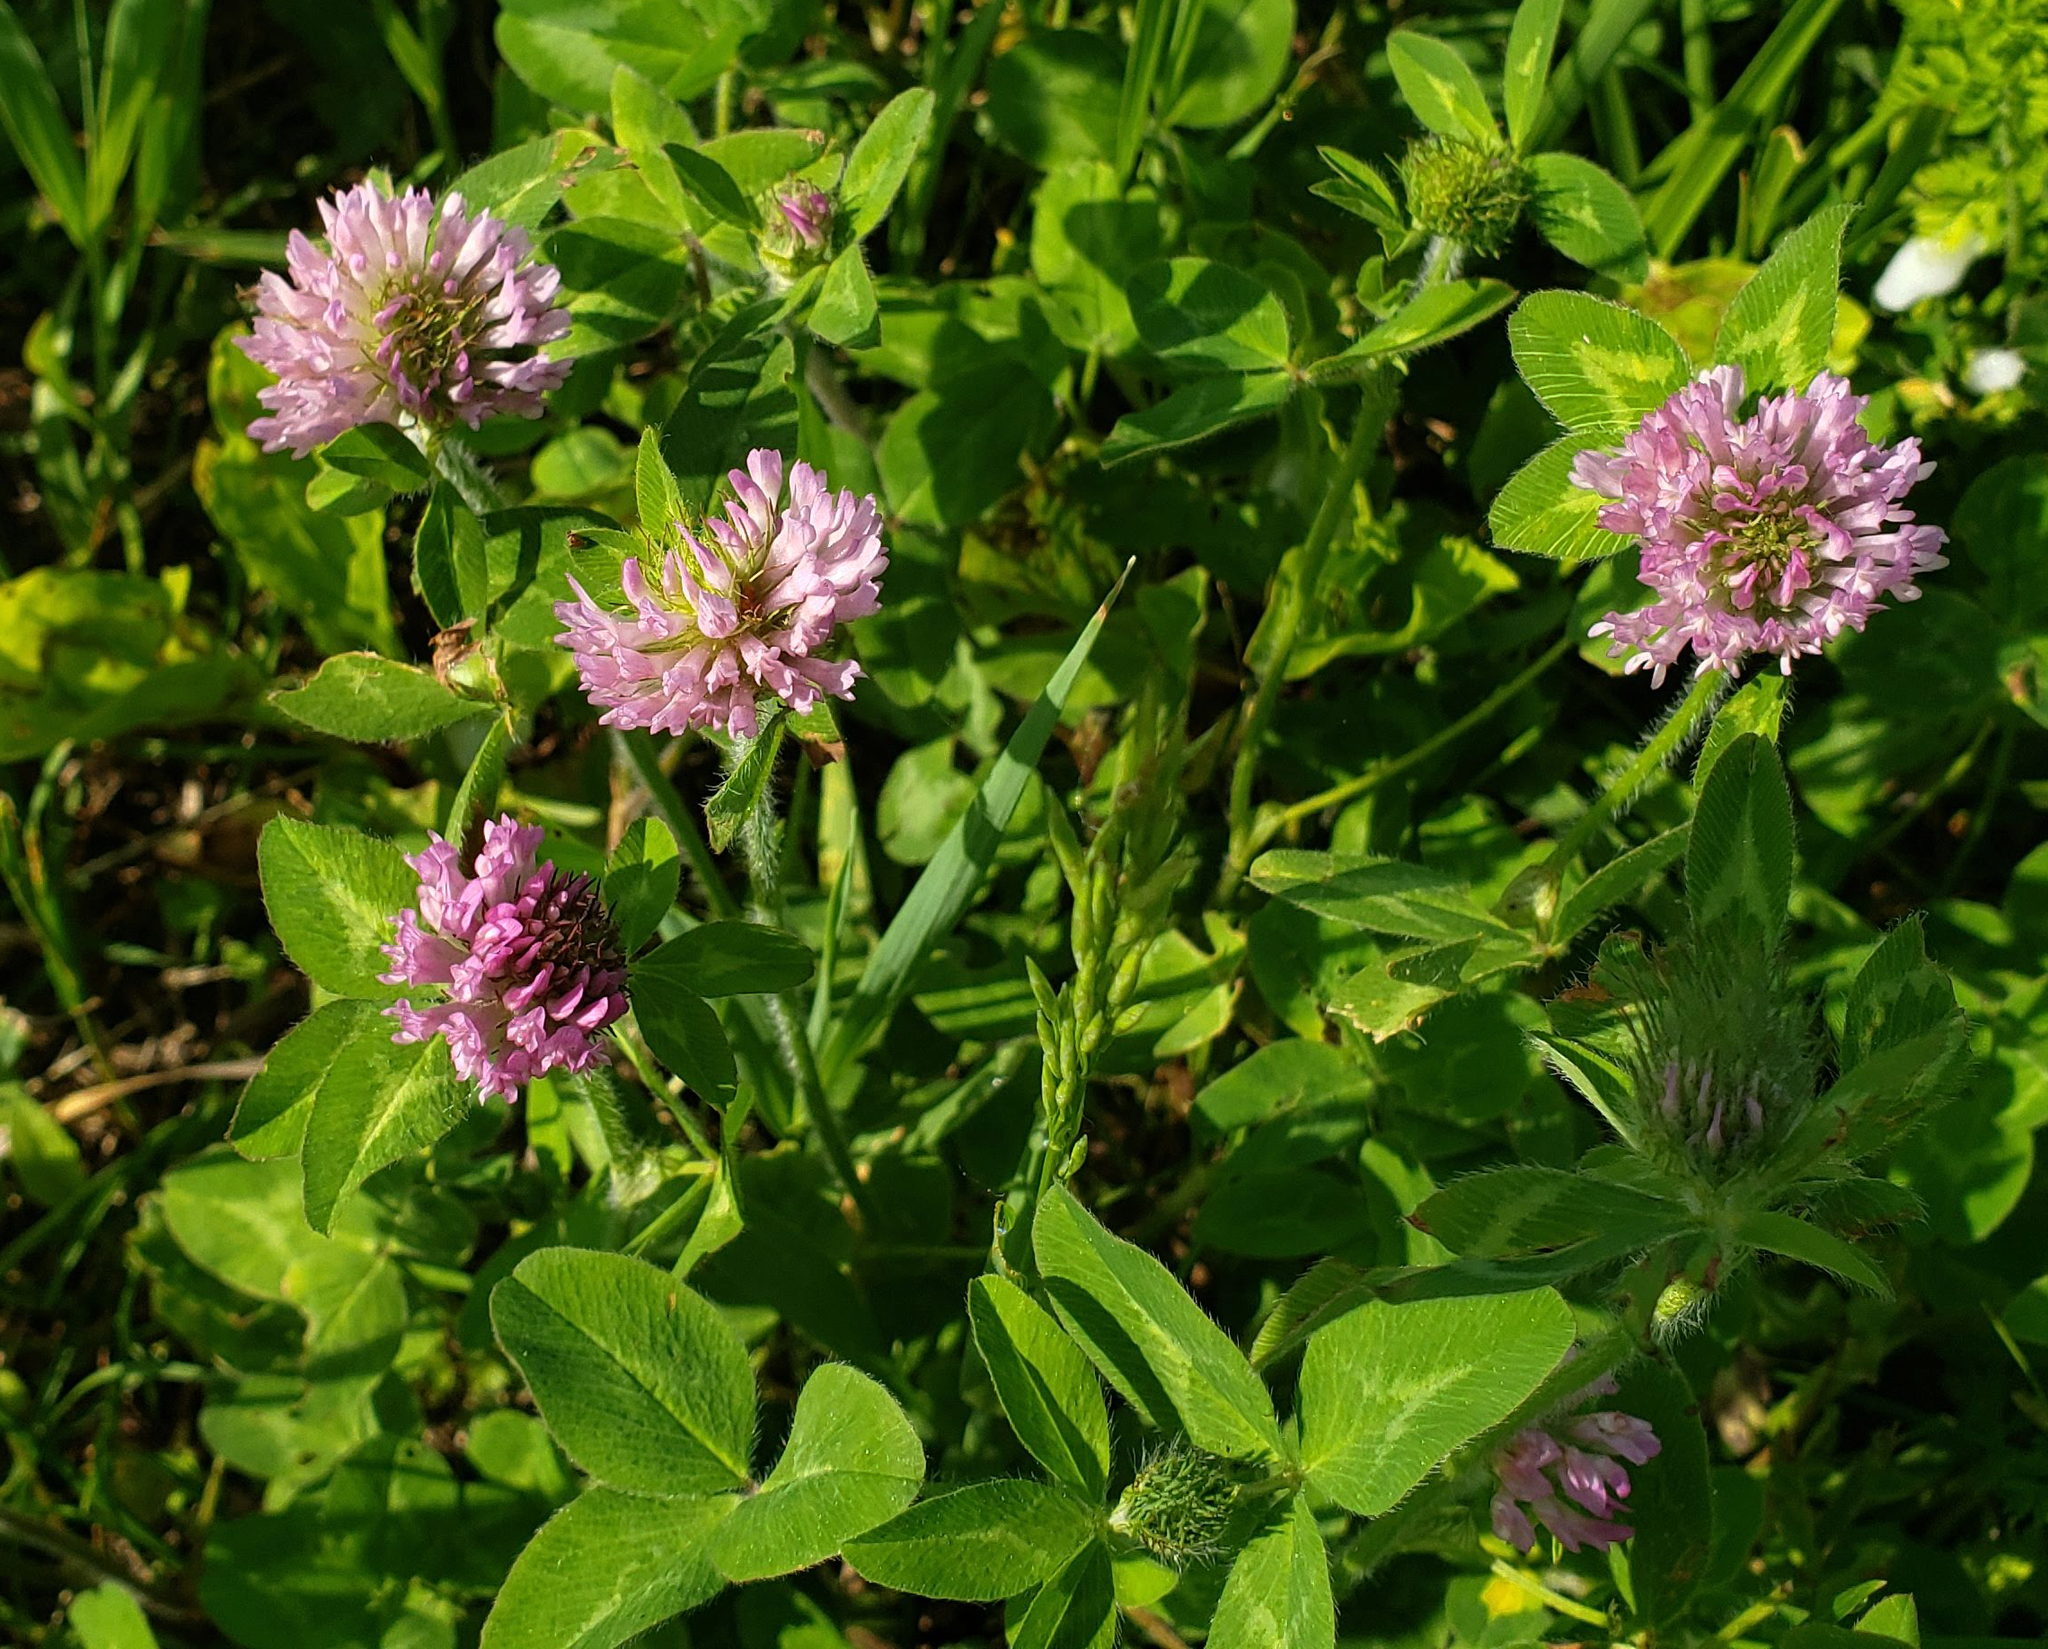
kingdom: Plantae
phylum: Tracheophyta
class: Magnoliopsida
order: Fabales
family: Fabaceae
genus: Trifolium
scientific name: Trifolium pratense
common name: Red clover
